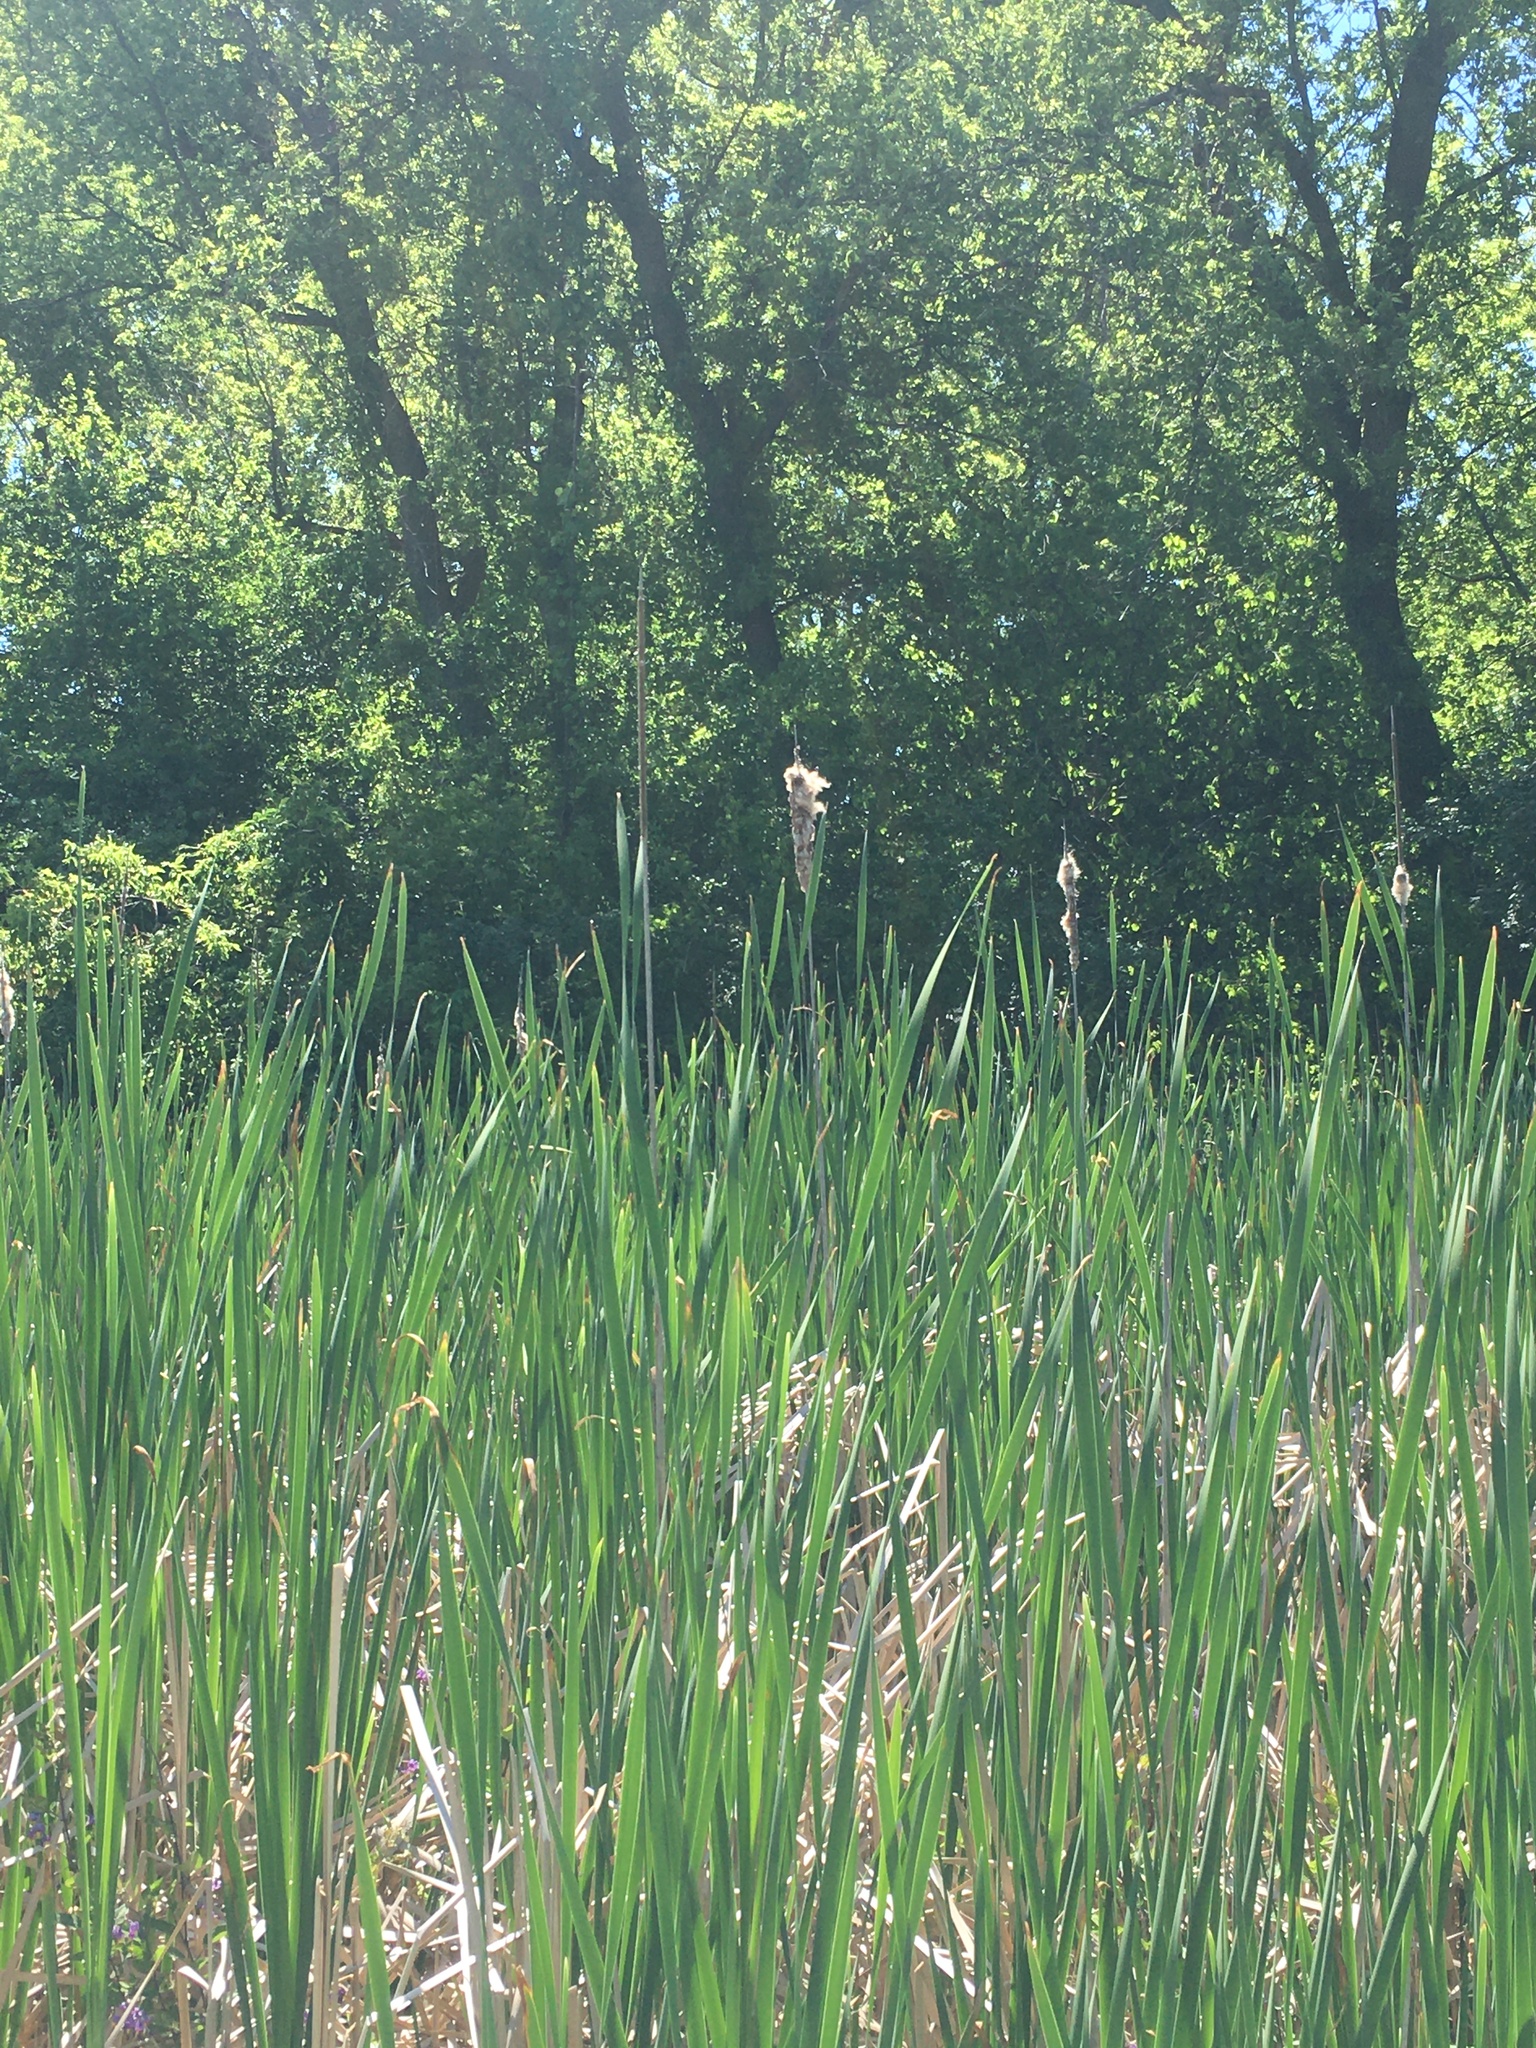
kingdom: Plantae
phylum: Tracheophyta
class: Liliopsida
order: Poales
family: Typhaceae
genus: Typha
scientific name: Typha angustifolia
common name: Lesser bulrush
